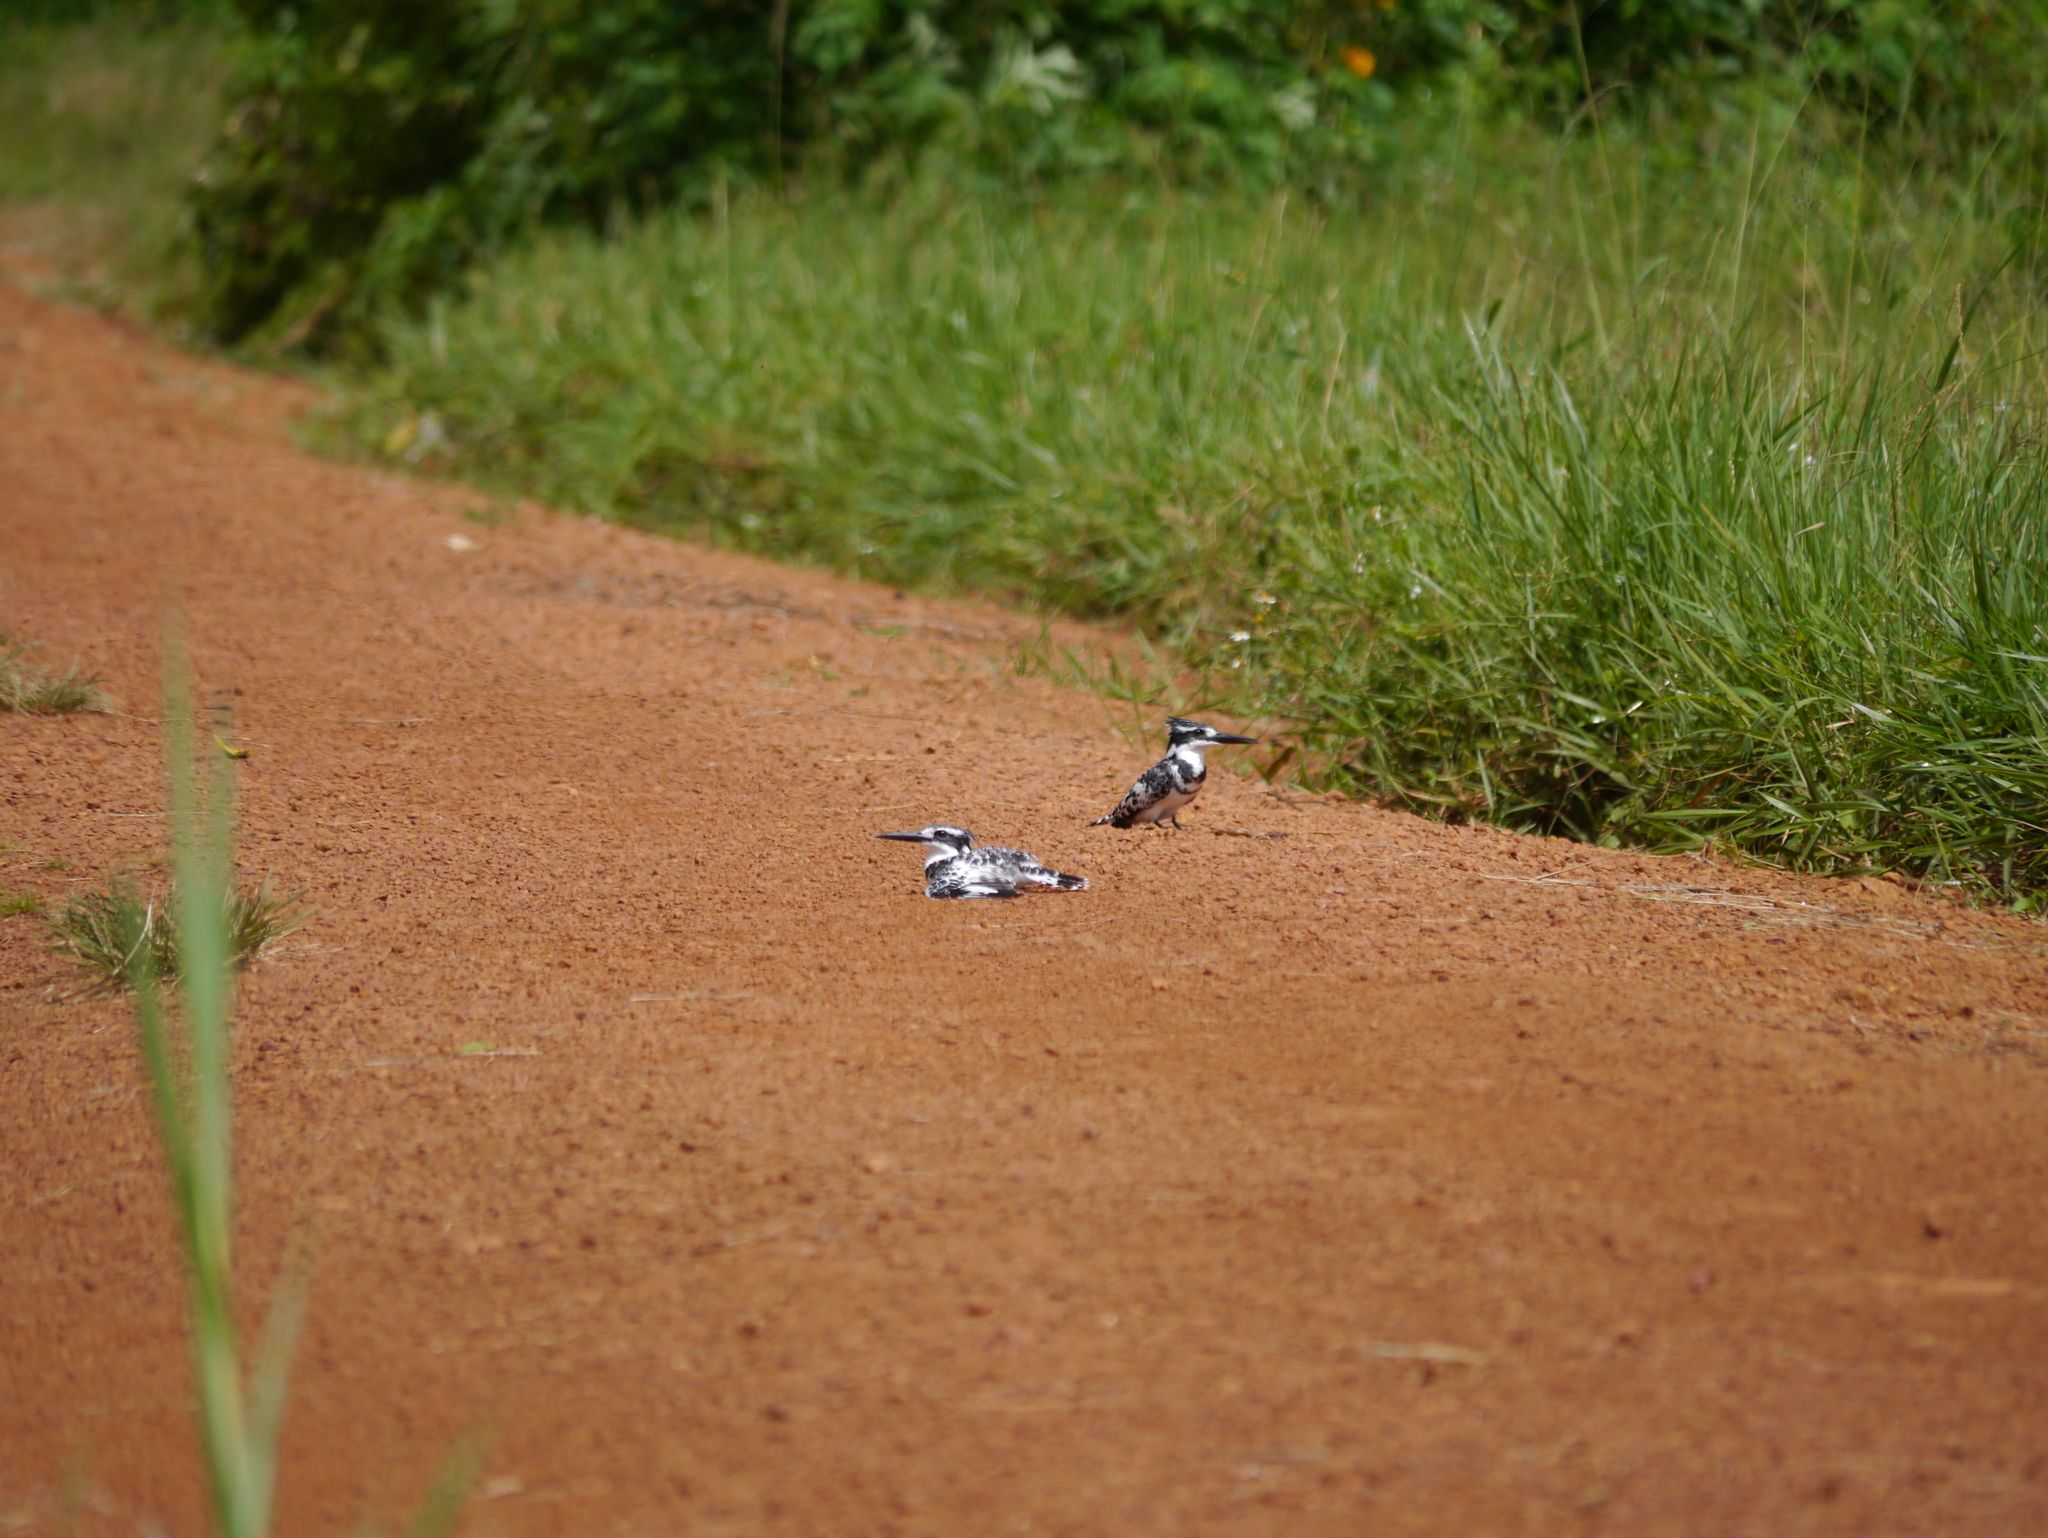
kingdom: Animalia
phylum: Chordata
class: Aves
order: Coraciiformes
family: Alcedinidae
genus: Ceryle
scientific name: Ceryle rudis
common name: Pied kingfisher
